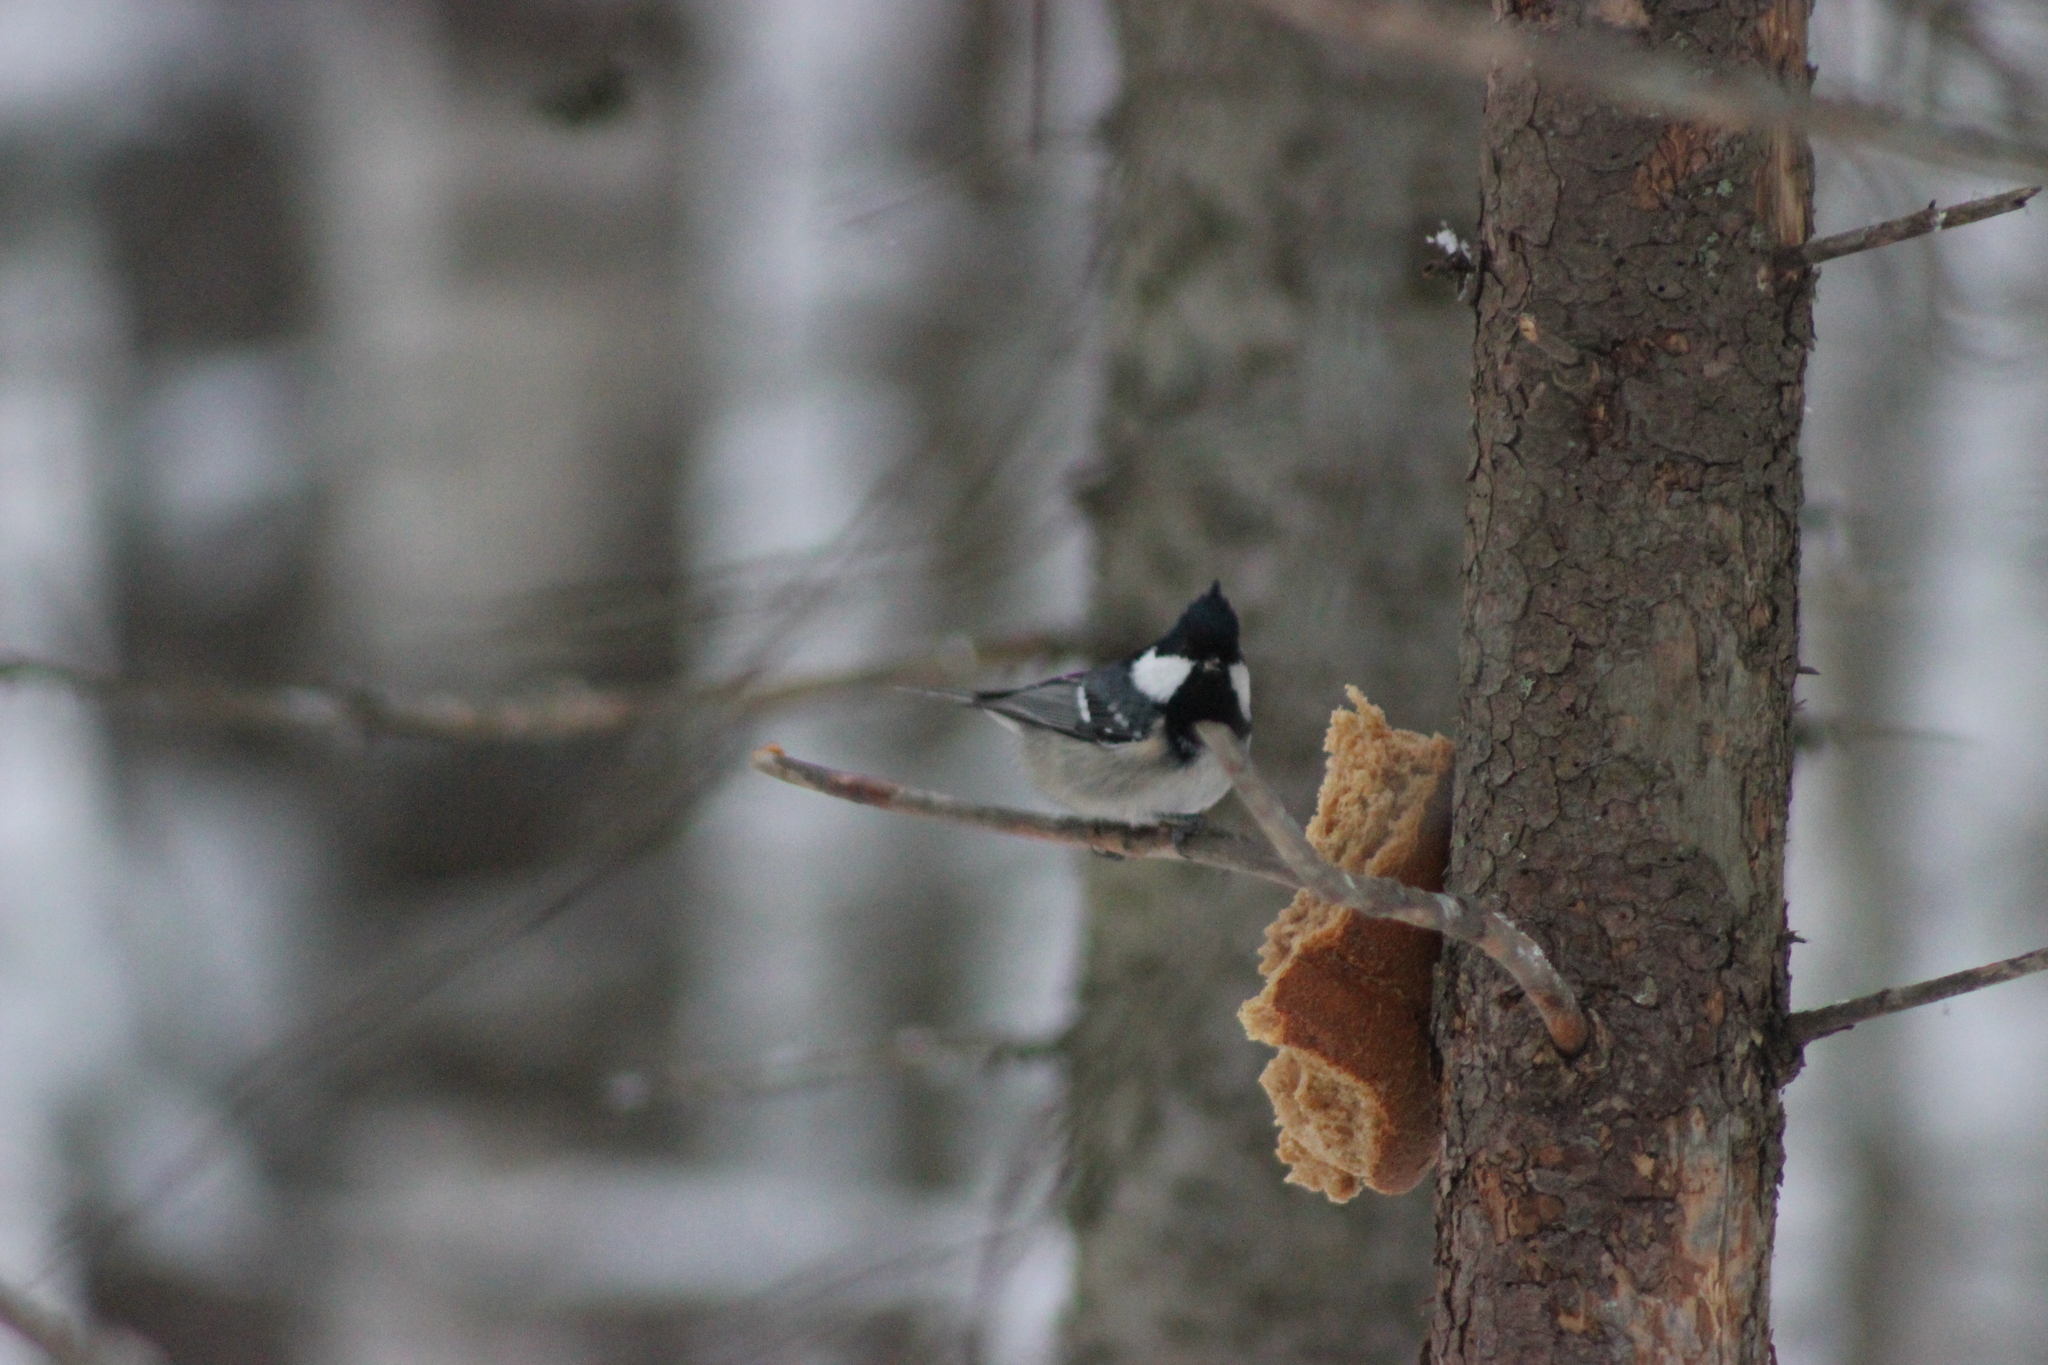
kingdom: Animalia
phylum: Chordata
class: Aves
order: Passeriformes
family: Paridae
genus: Periparus
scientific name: Periparus ater
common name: Coal tit
